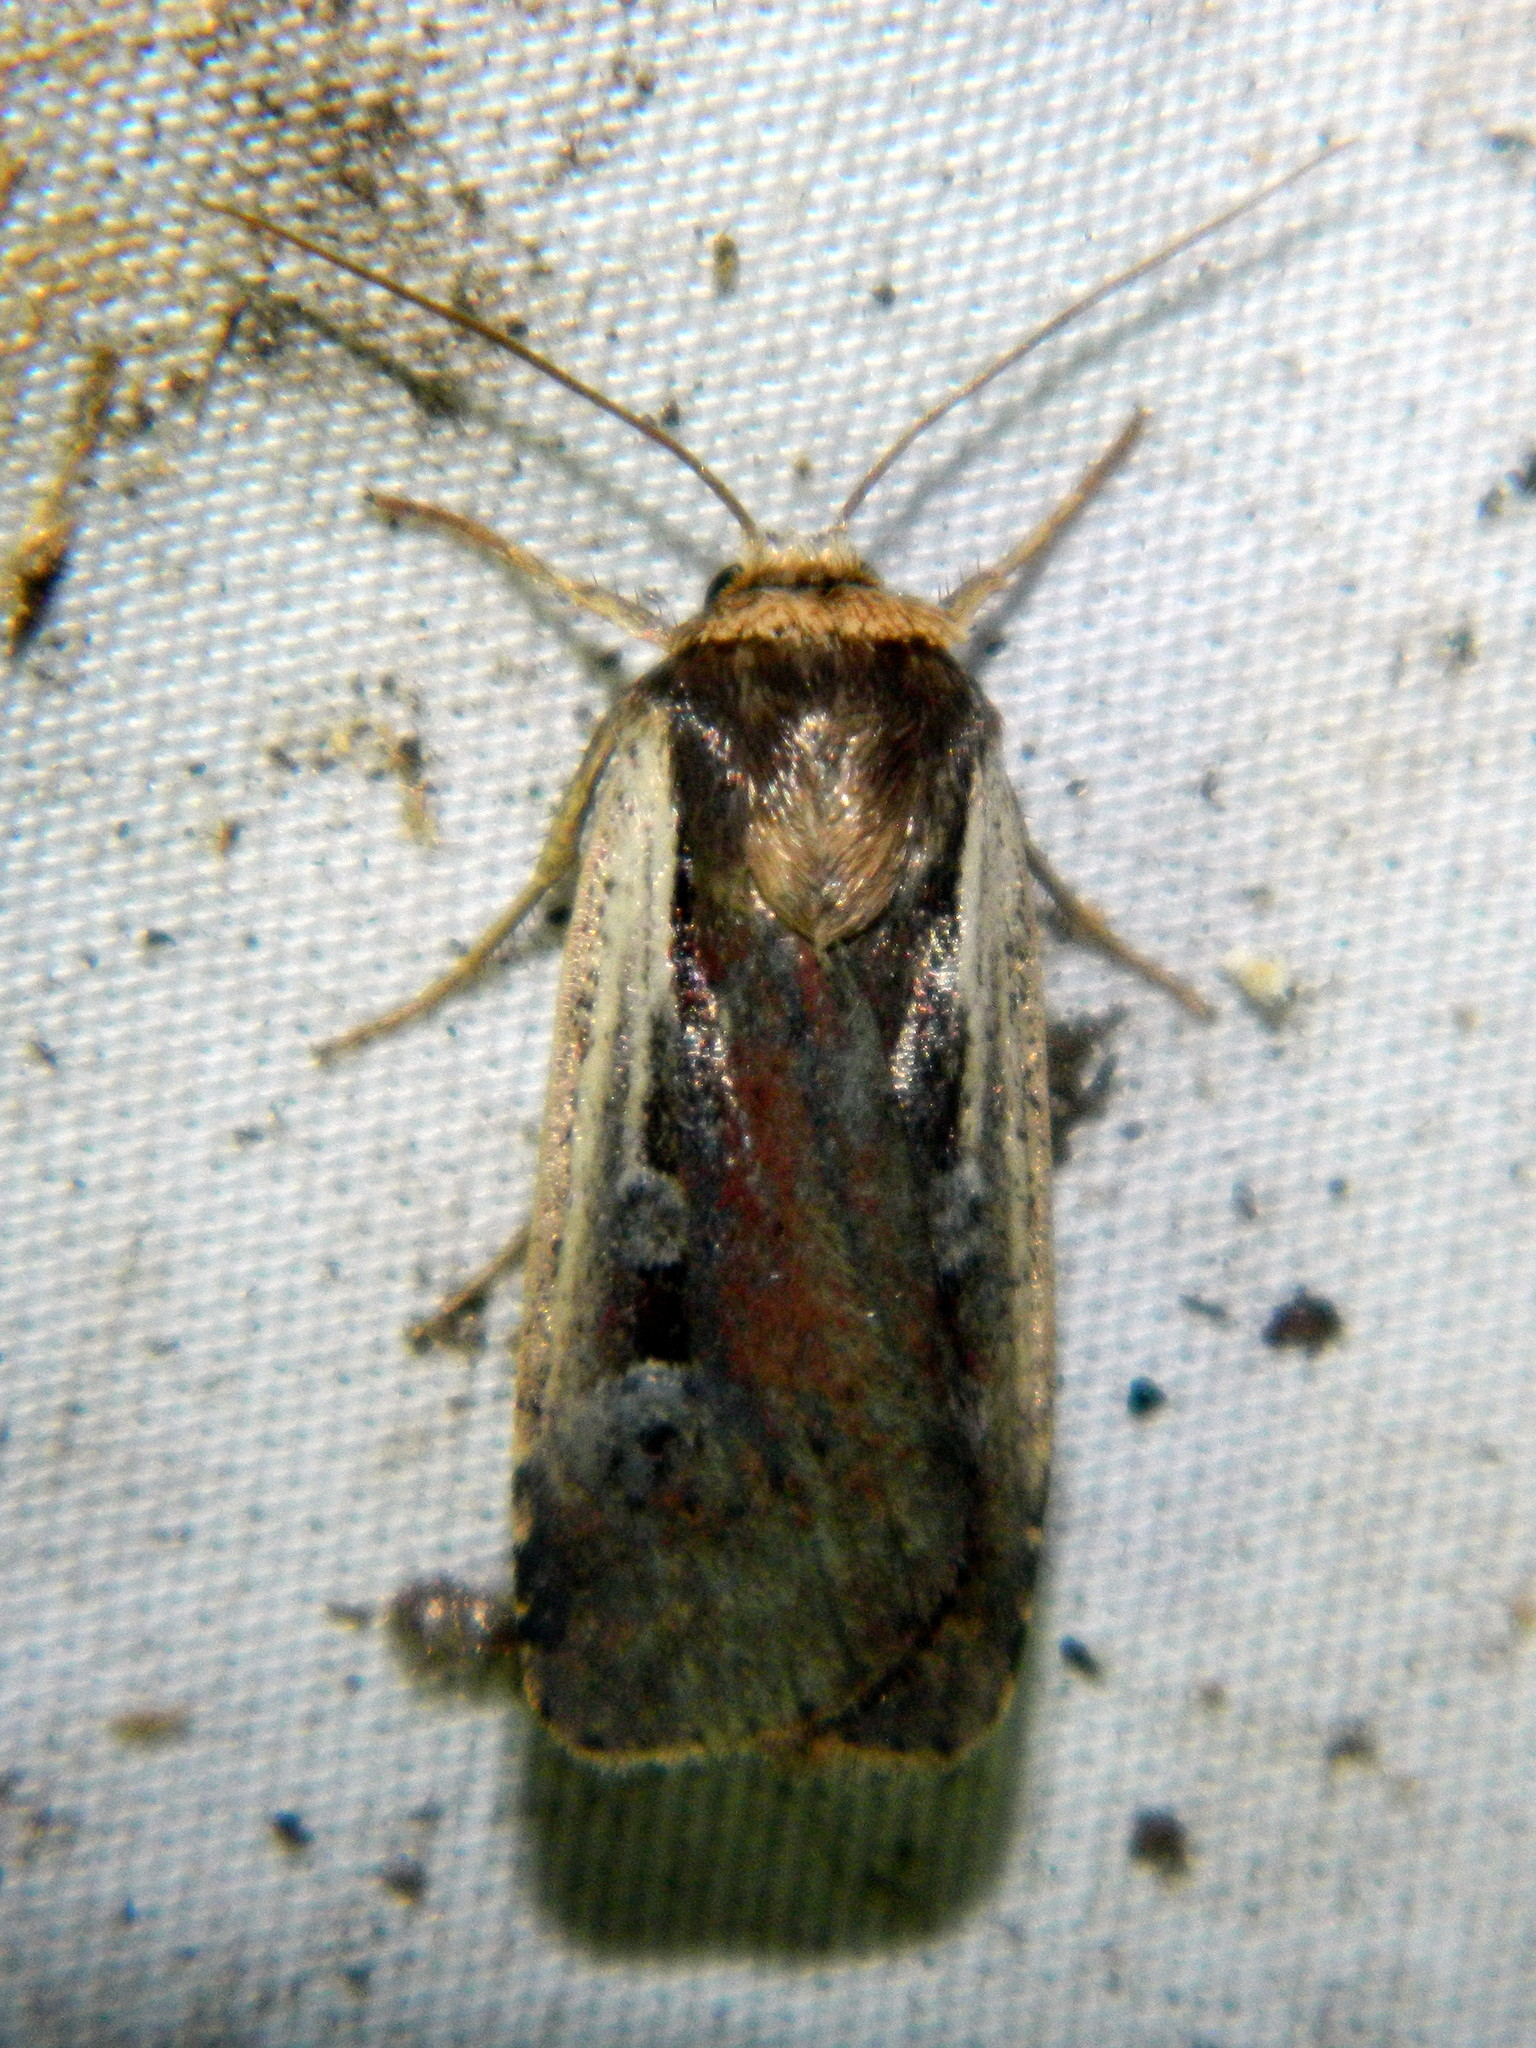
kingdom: Animalia
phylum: Arthropoda
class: Insecta
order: Lepidoptera
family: Noctuidae
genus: Ochropleura
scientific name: Ochropleura implecta
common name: Flame-shouldered dart
